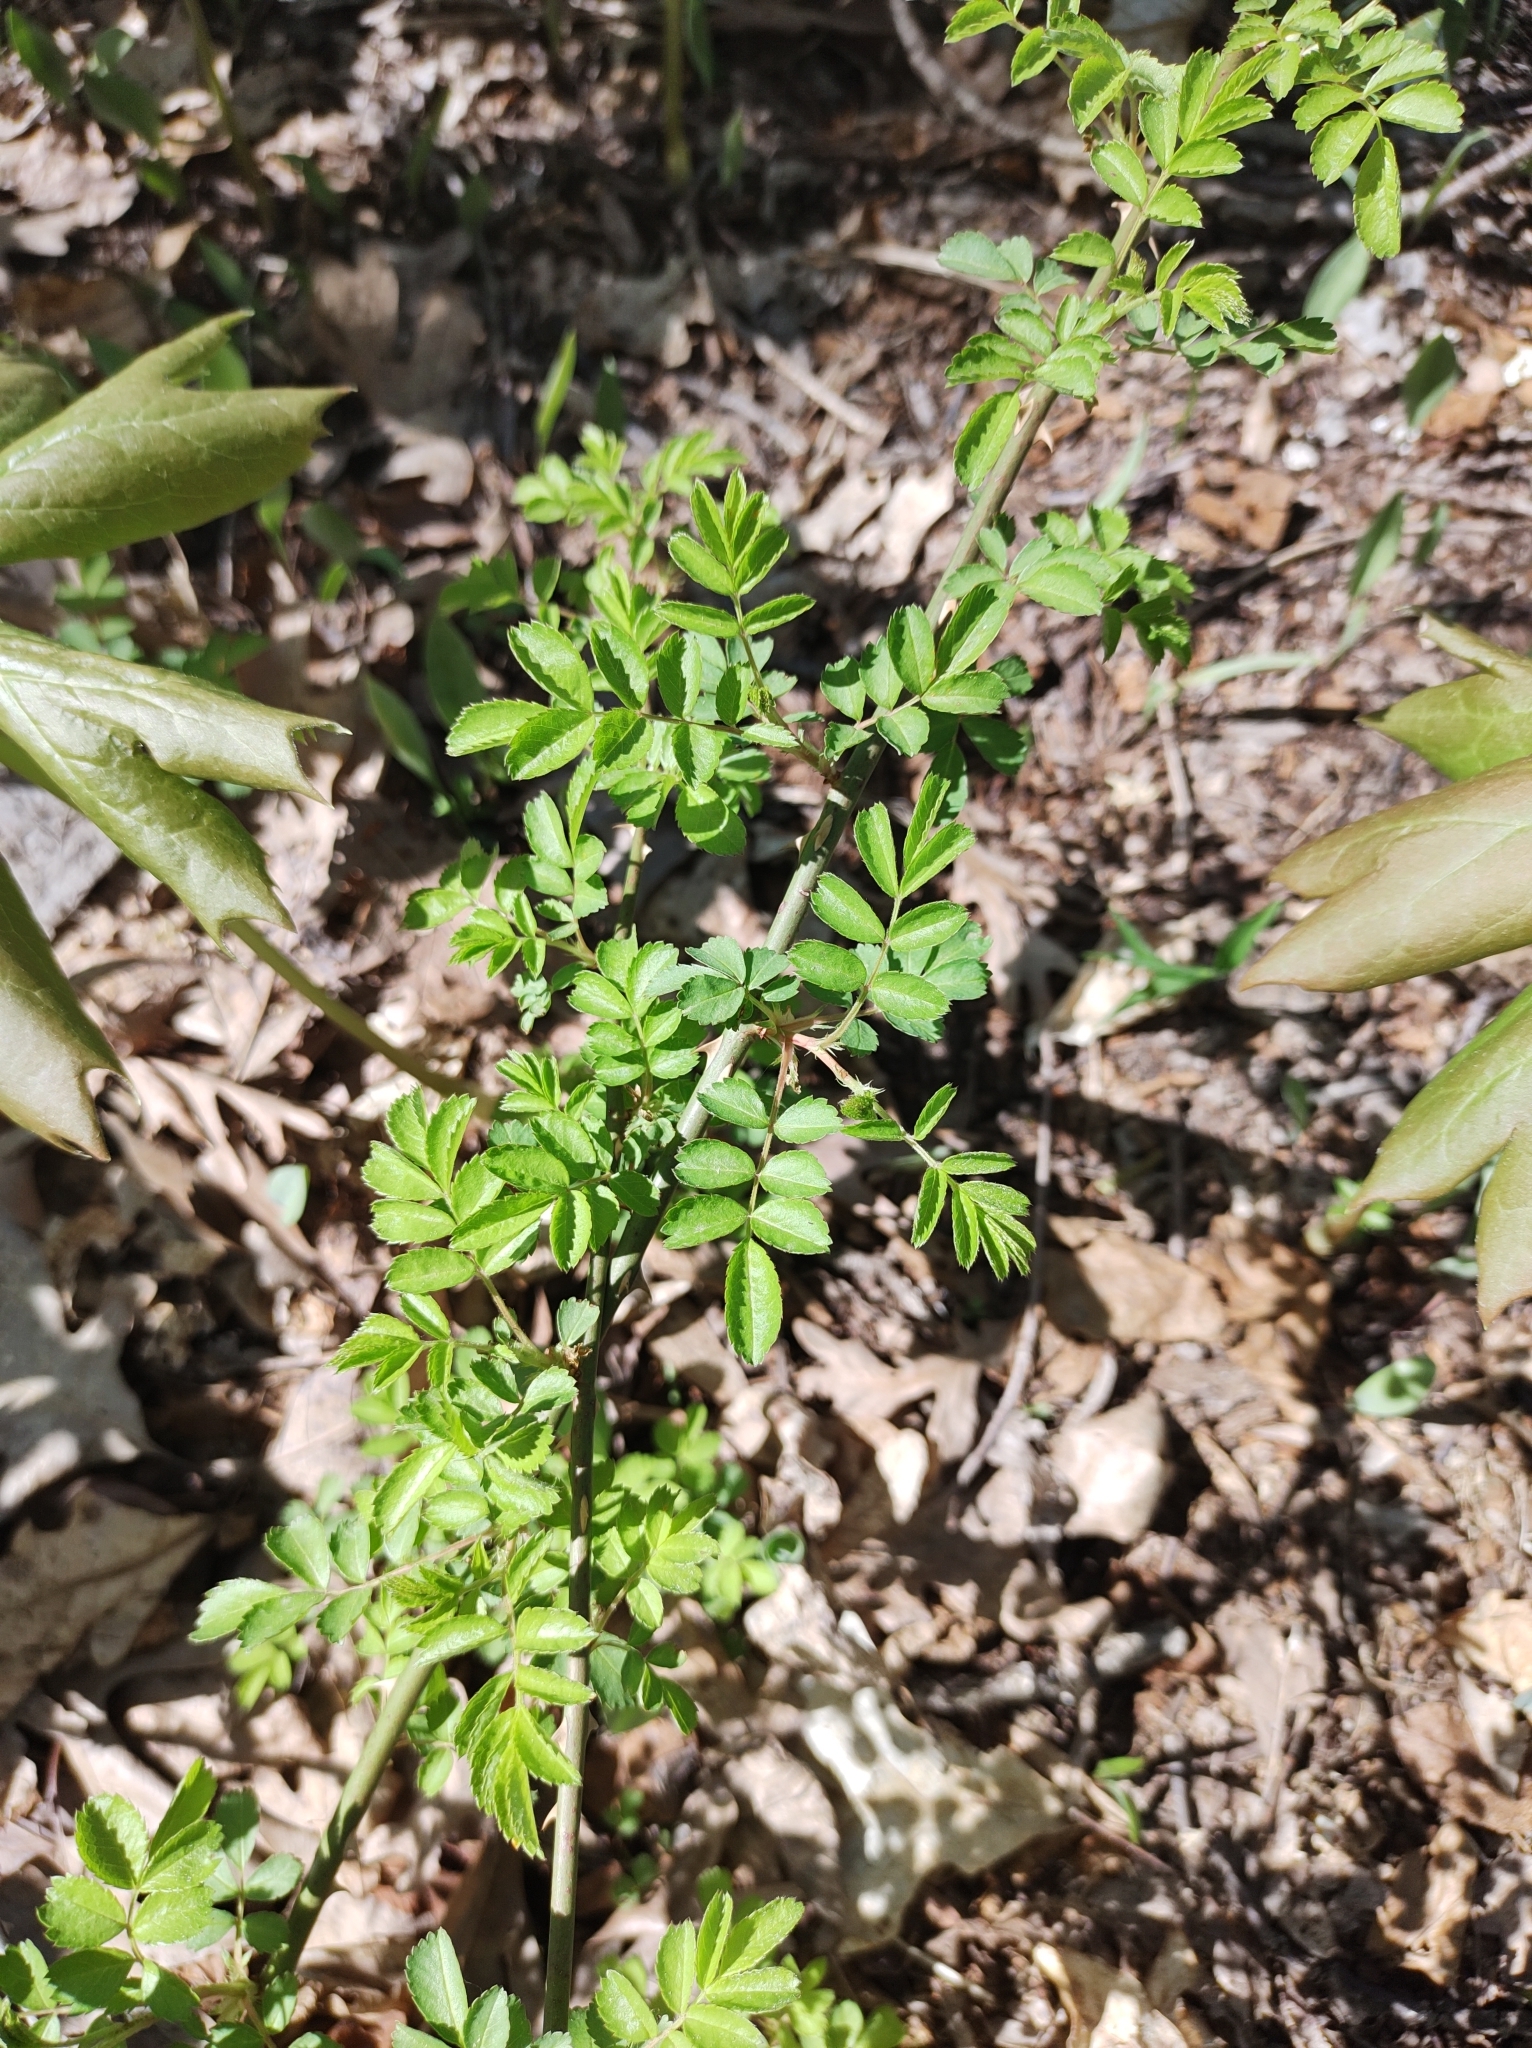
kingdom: Plantae
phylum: Tracheophyta
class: Magnoliopsida
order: Rosales
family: Rosaceae
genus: Rosa
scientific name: Rosa multiflora
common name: Multiflora rose
